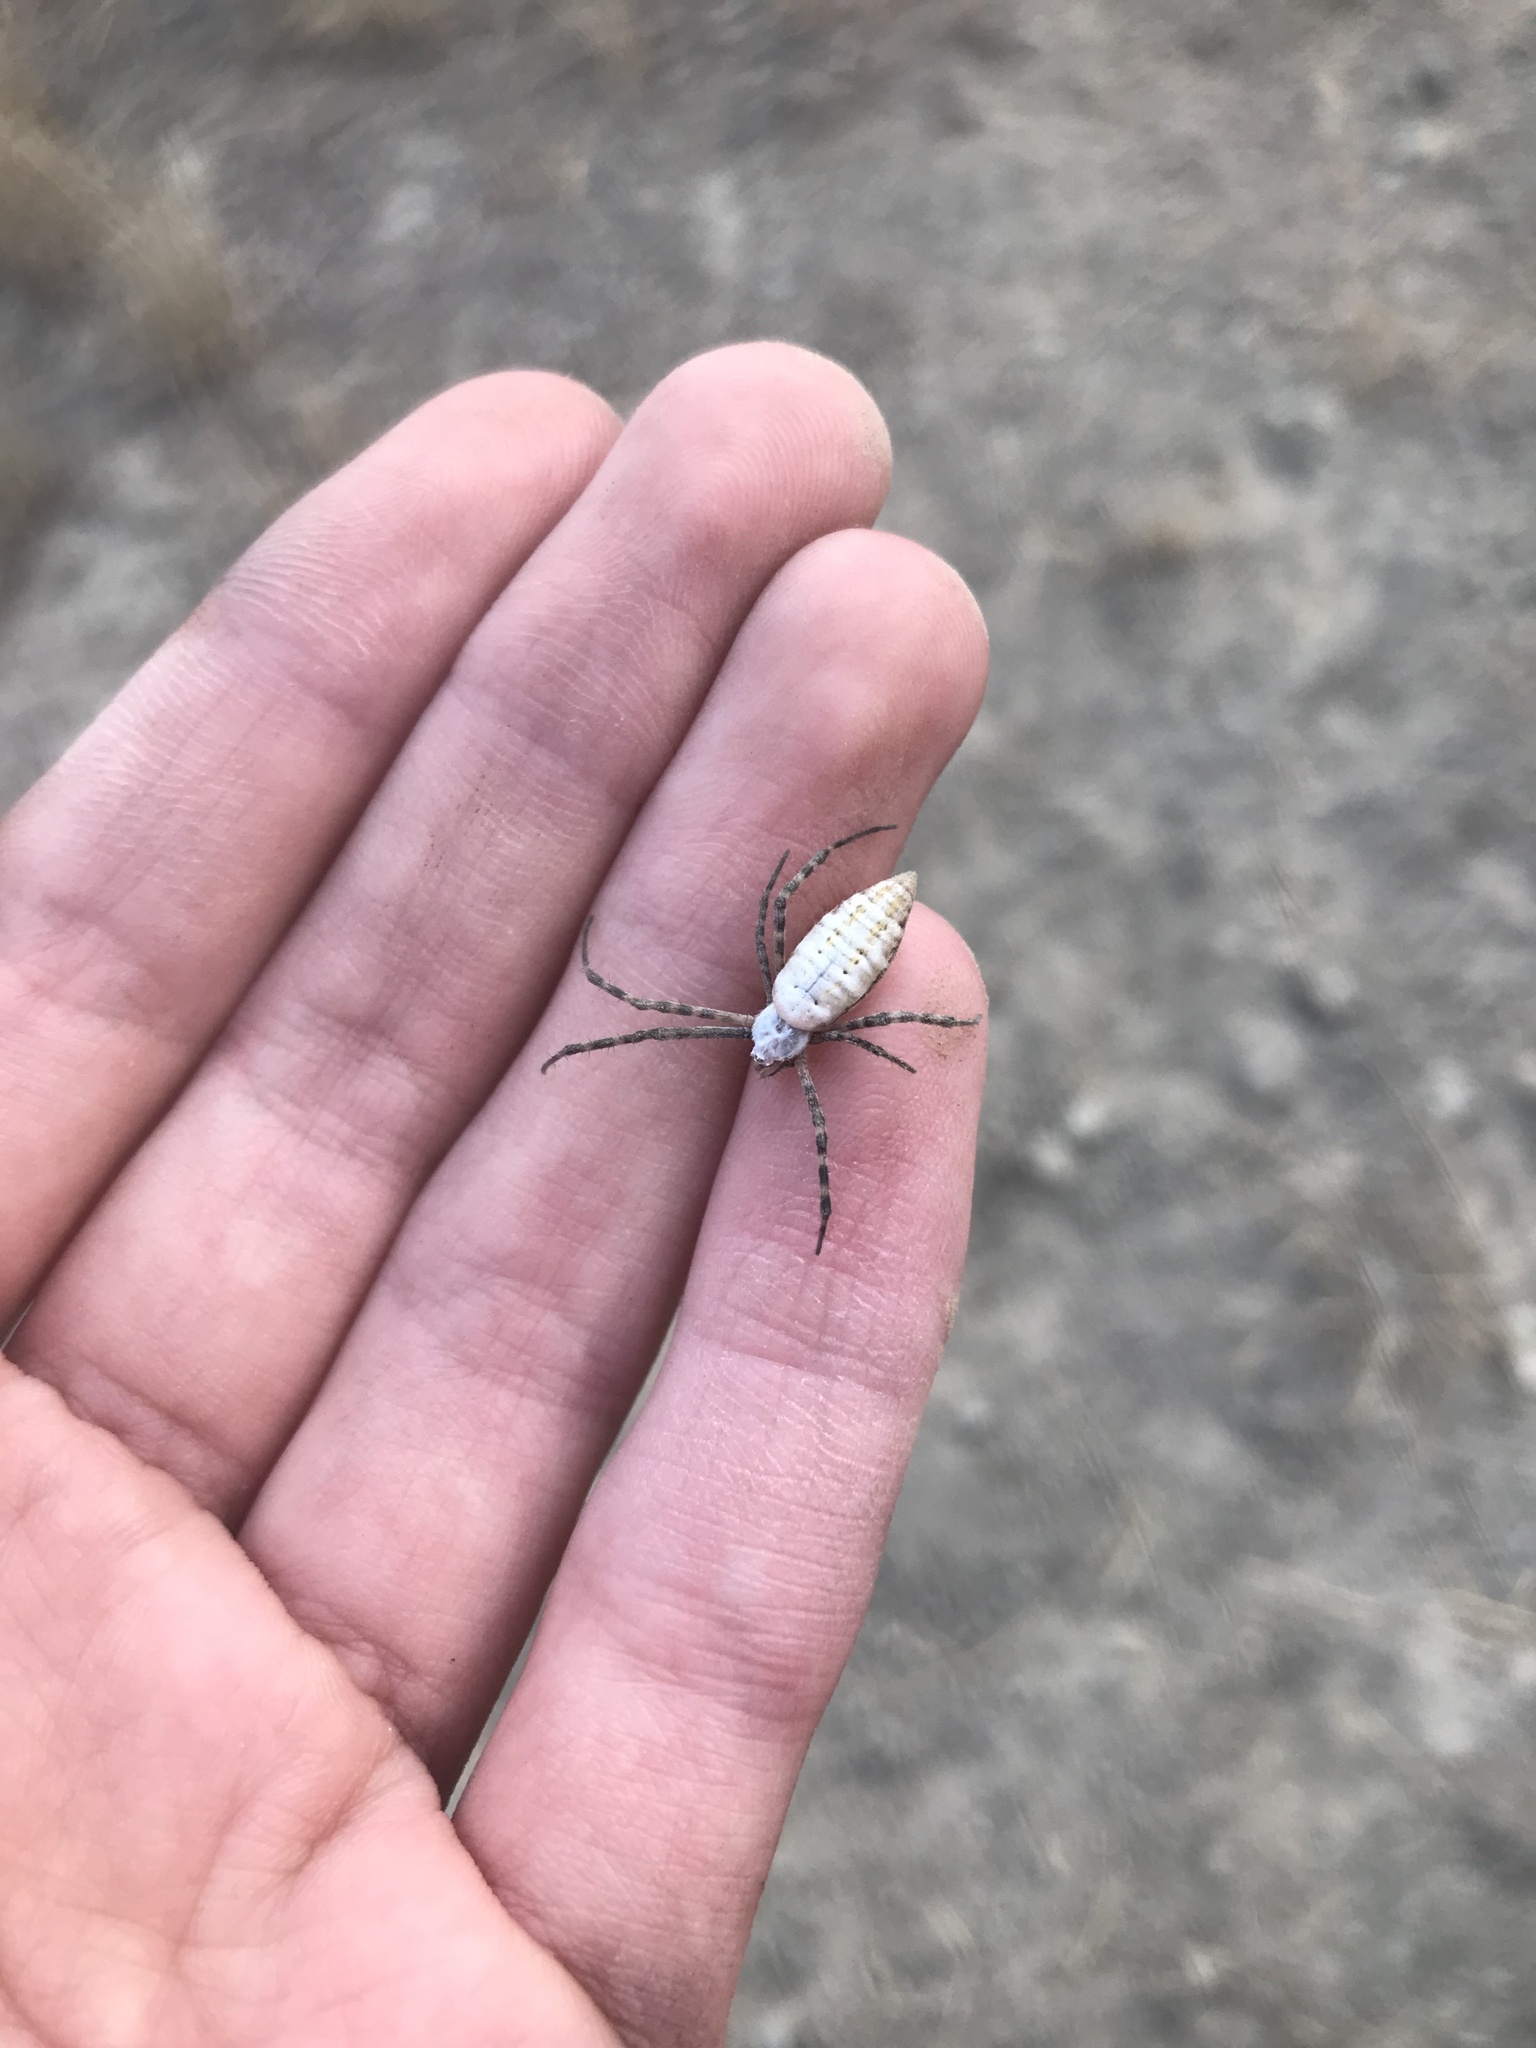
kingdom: Animalia
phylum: Arthropoda
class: Arachnida
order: Araneae
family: Araneidae
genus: Argiope
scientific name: Argiope trifasciata
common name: Banded garden spider
